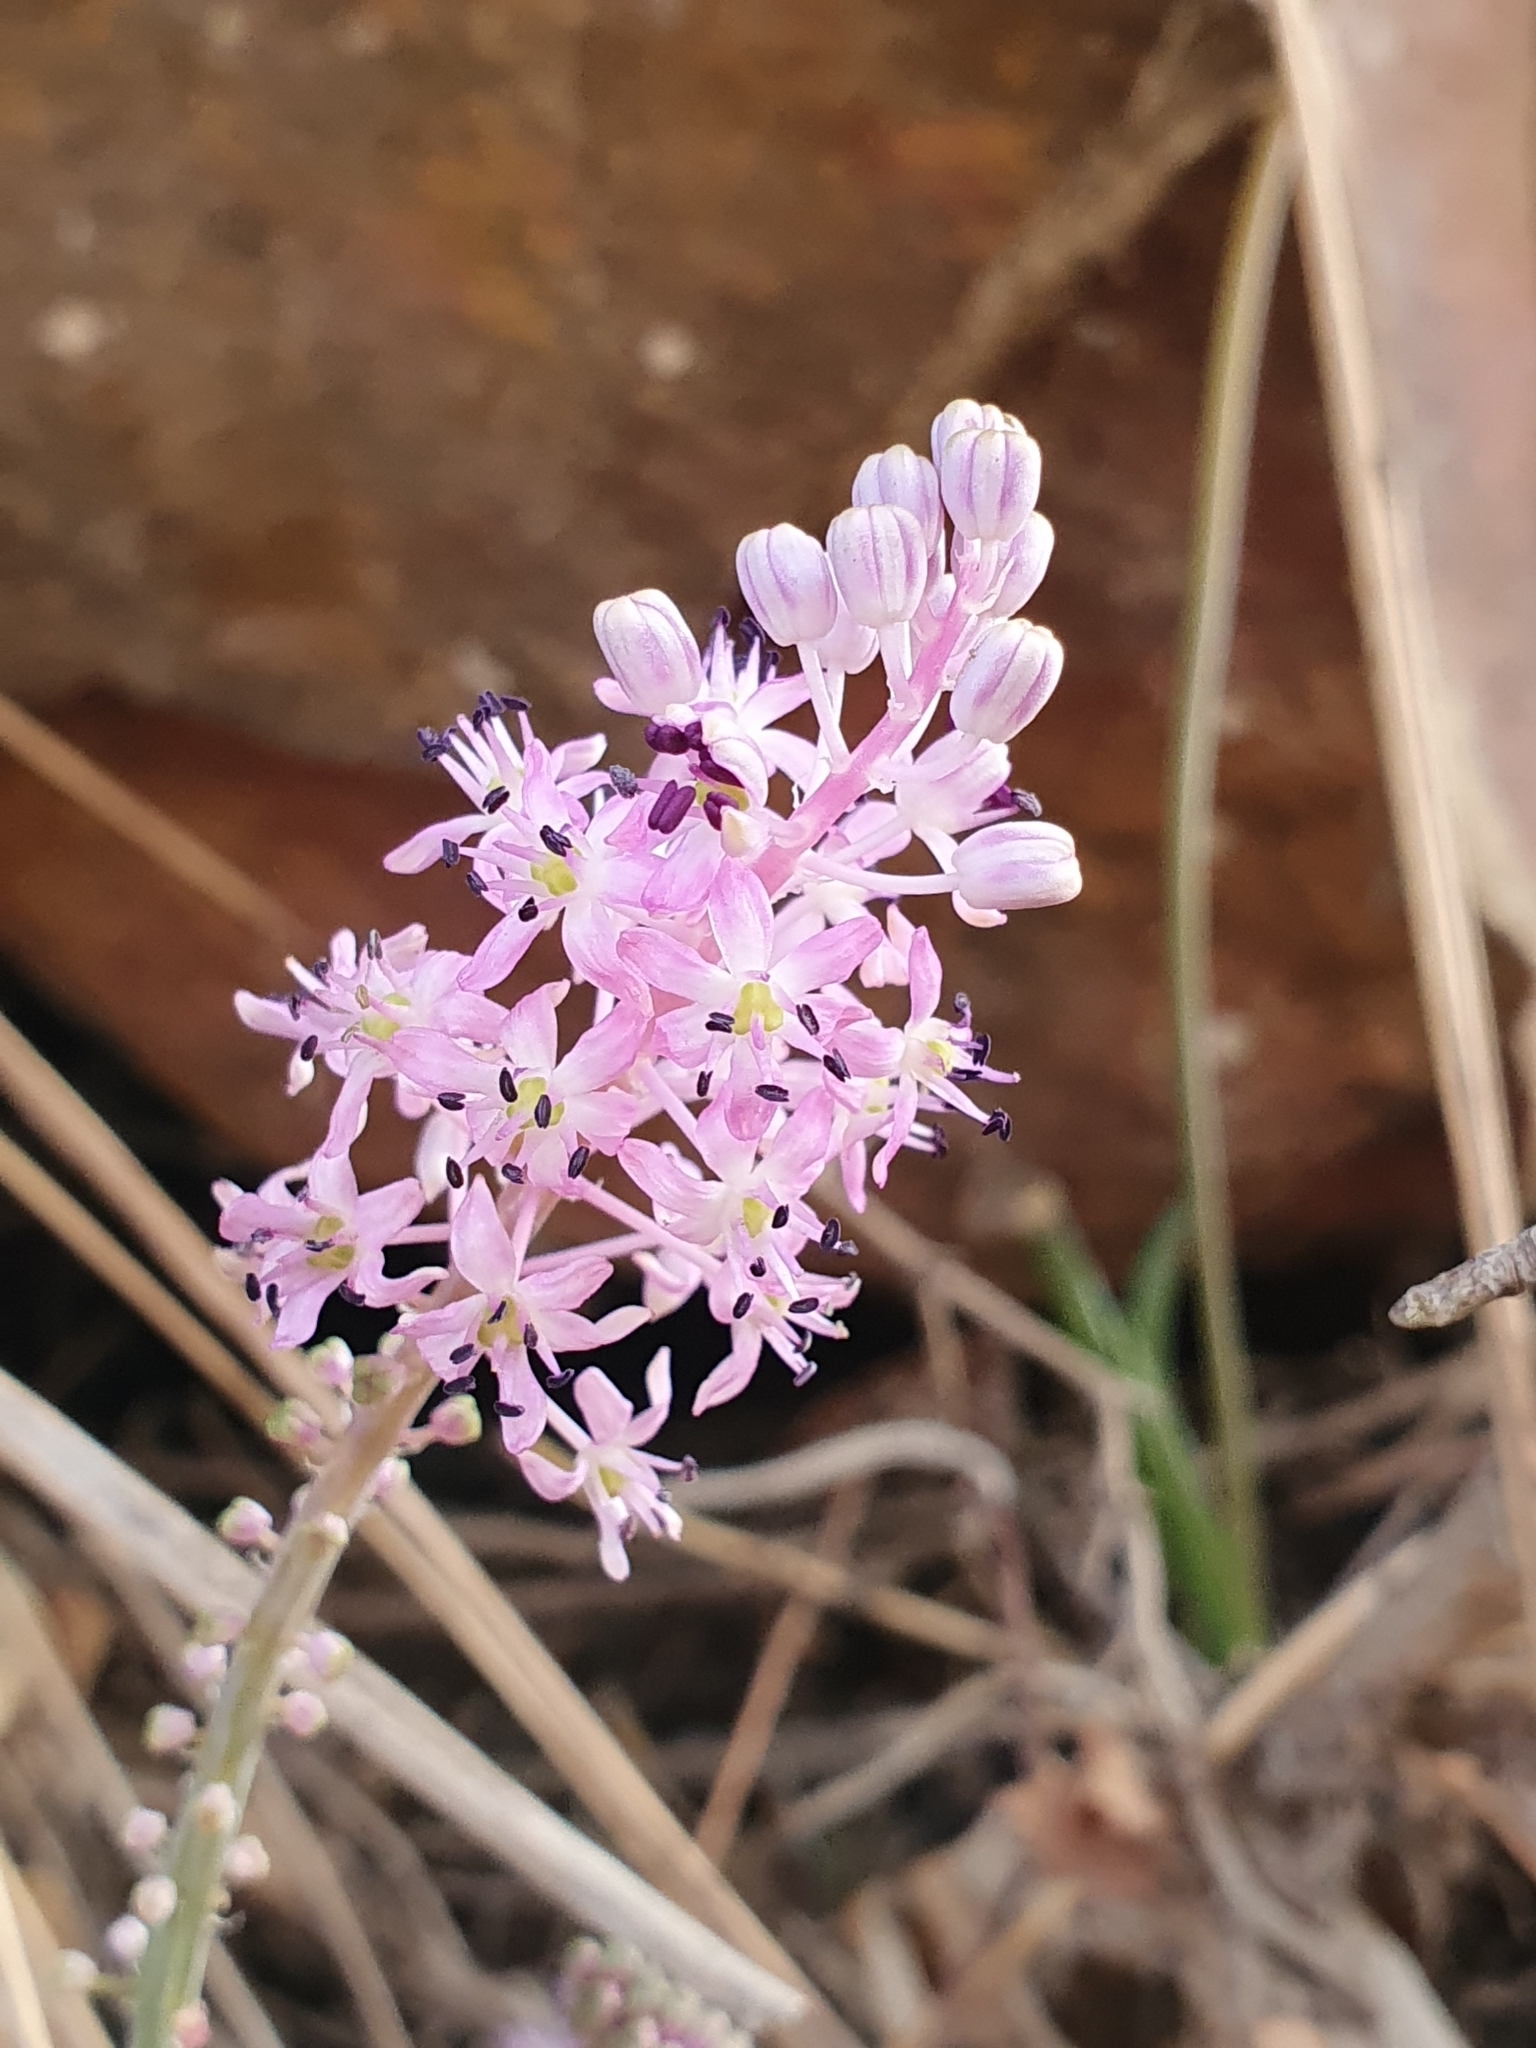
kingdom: Plantae
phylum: Tracheophyta
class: Liliopsida
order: Asparagales
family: Asparagaceae
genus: Barnardia
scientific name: Barnardia numidica
